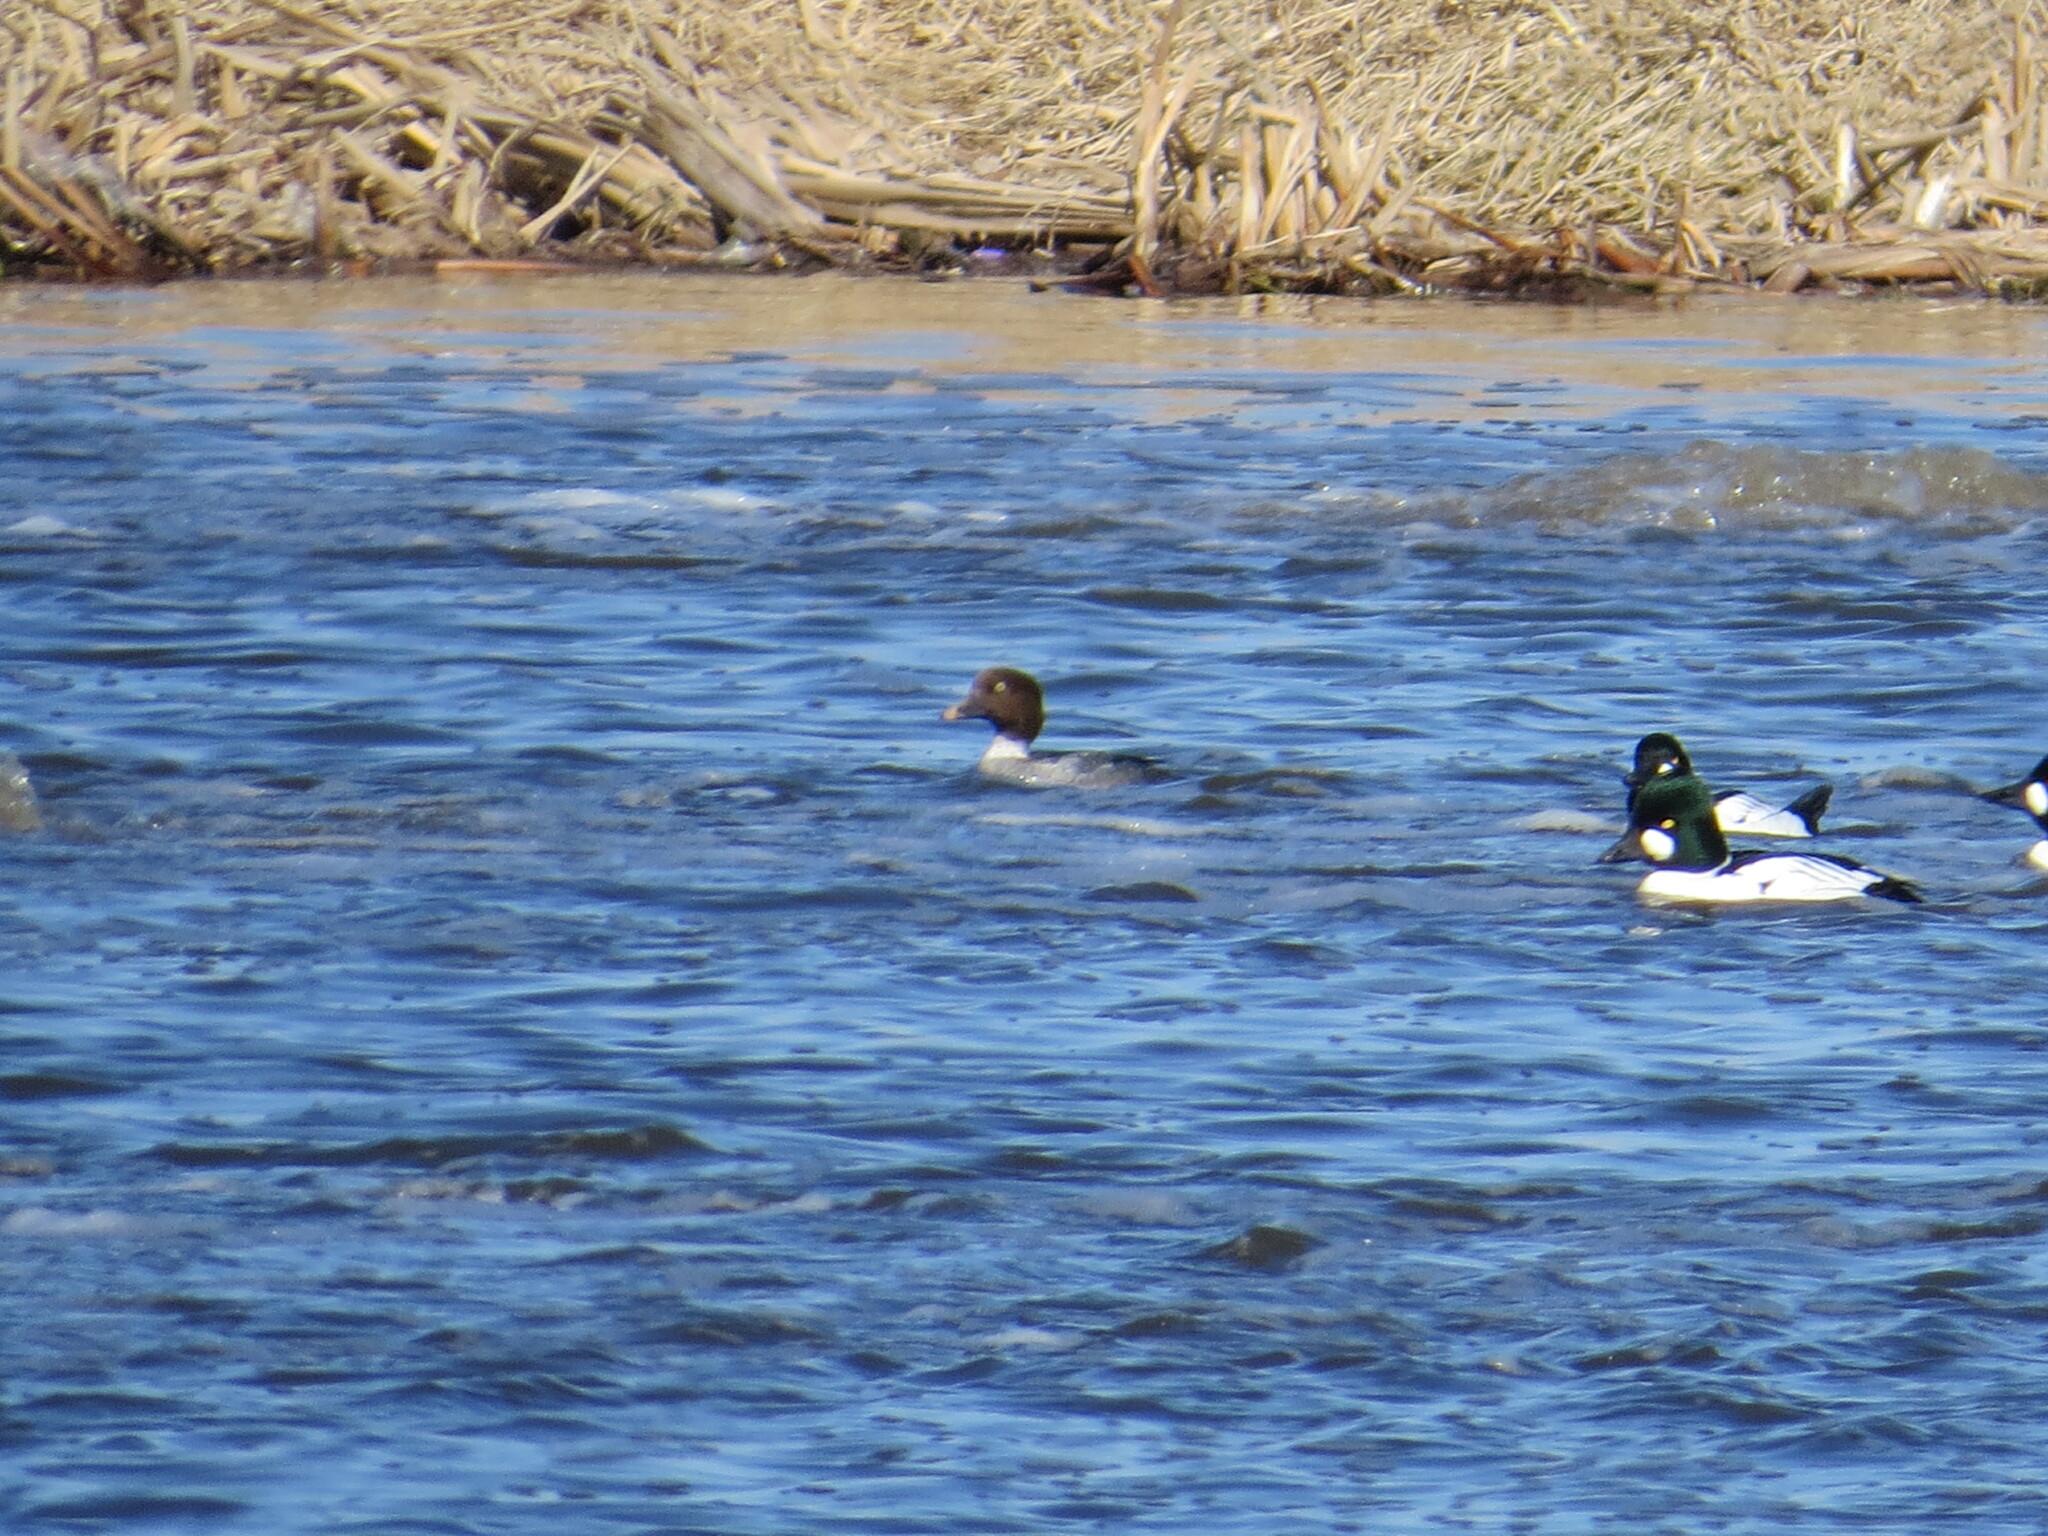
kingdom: Animalia
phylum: Chordata
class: Aves
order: Anseriformes
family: Anatidae
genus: Bucephala
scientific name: Bucephala clangula
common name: Common goldeneye
